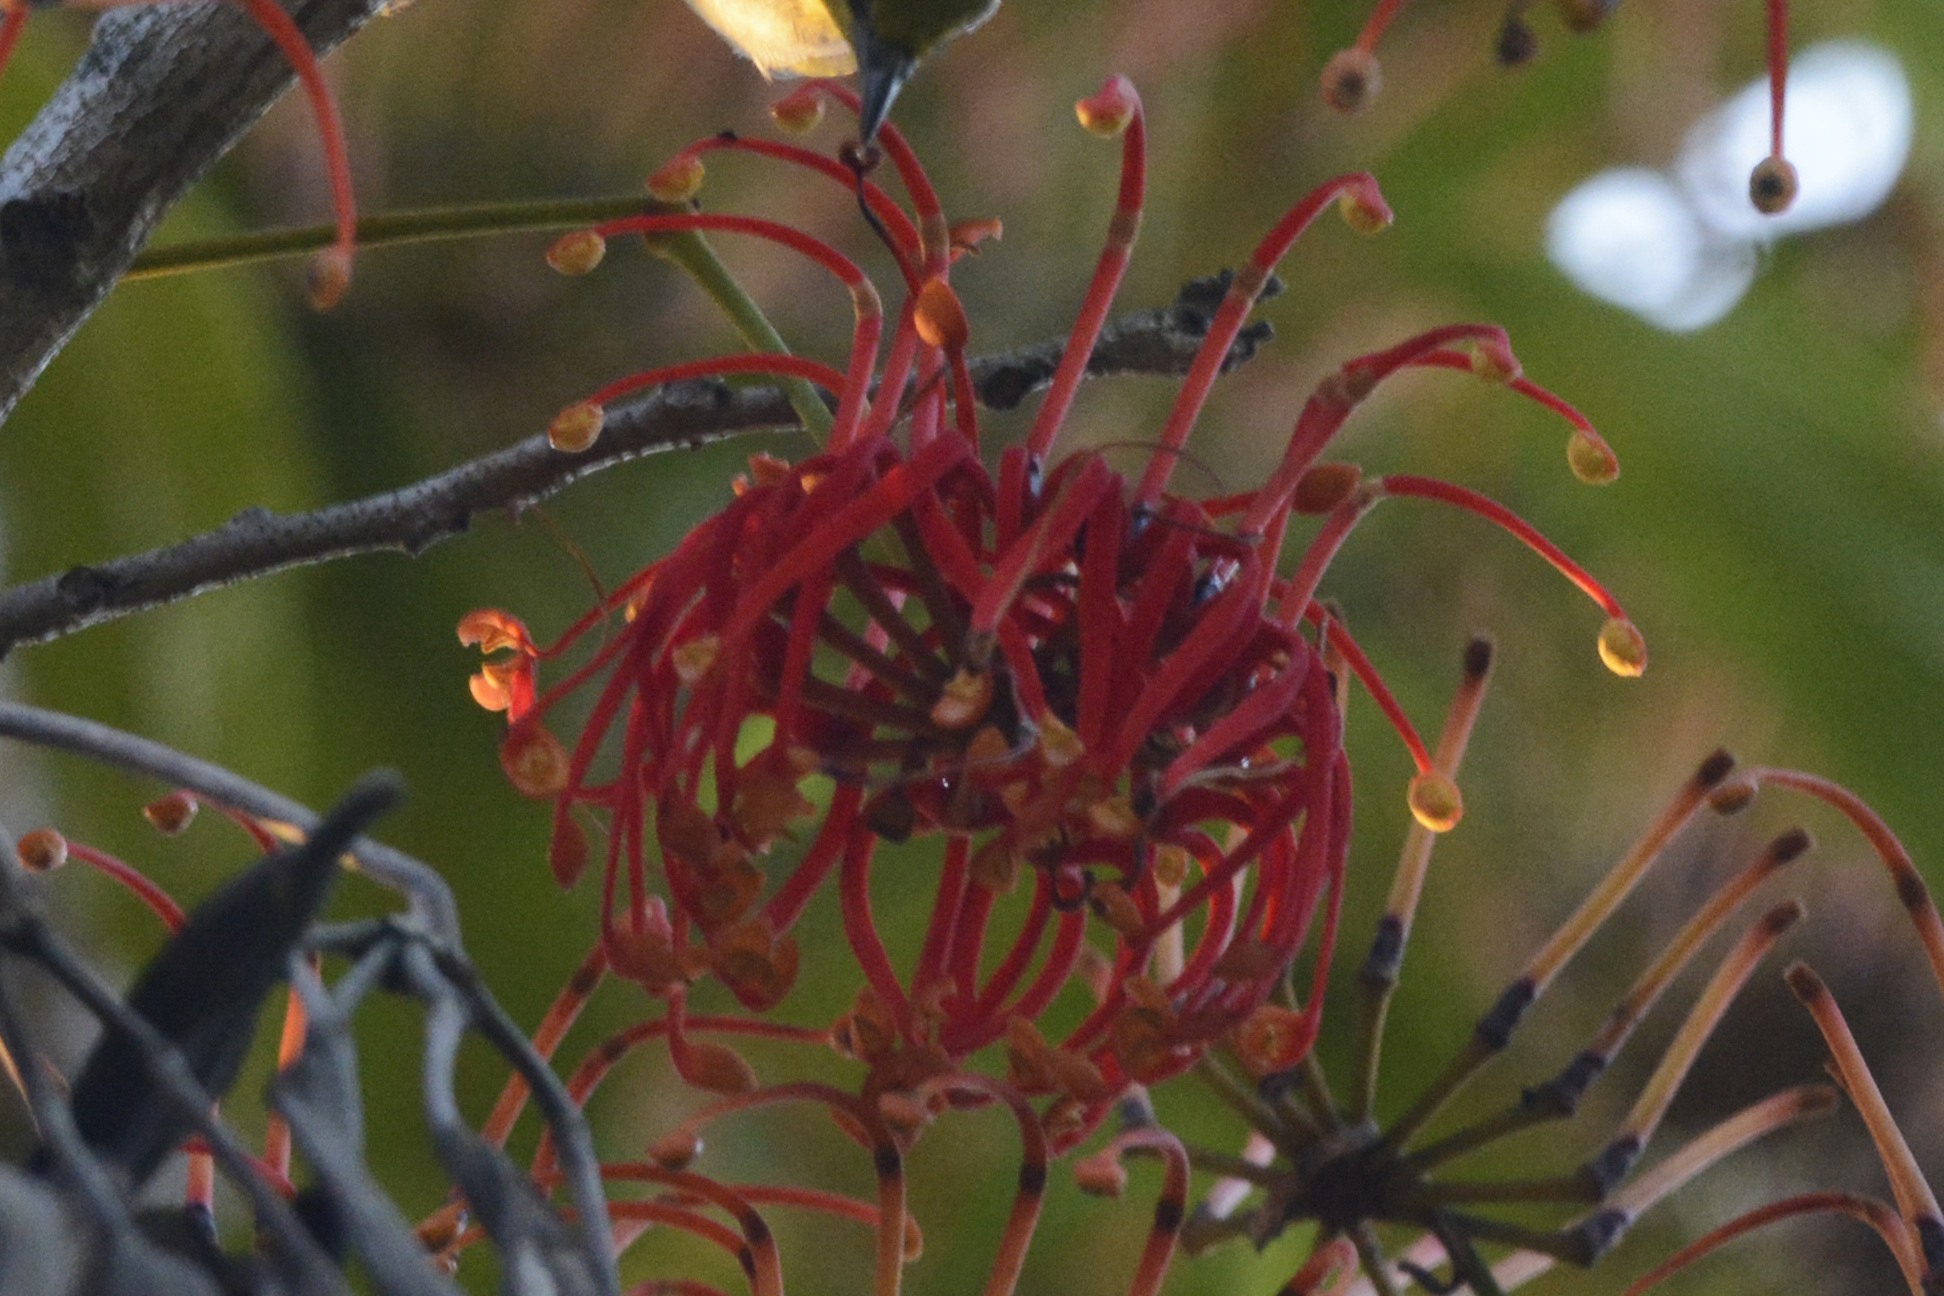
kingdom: Plantae
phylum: Tracheophyta
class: Magnoliopsida
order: Proteales
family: Proteaceae
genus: Stenocarpus
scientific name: Stenocarpus sinuatus
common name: Queensland fire-wheel-tree
